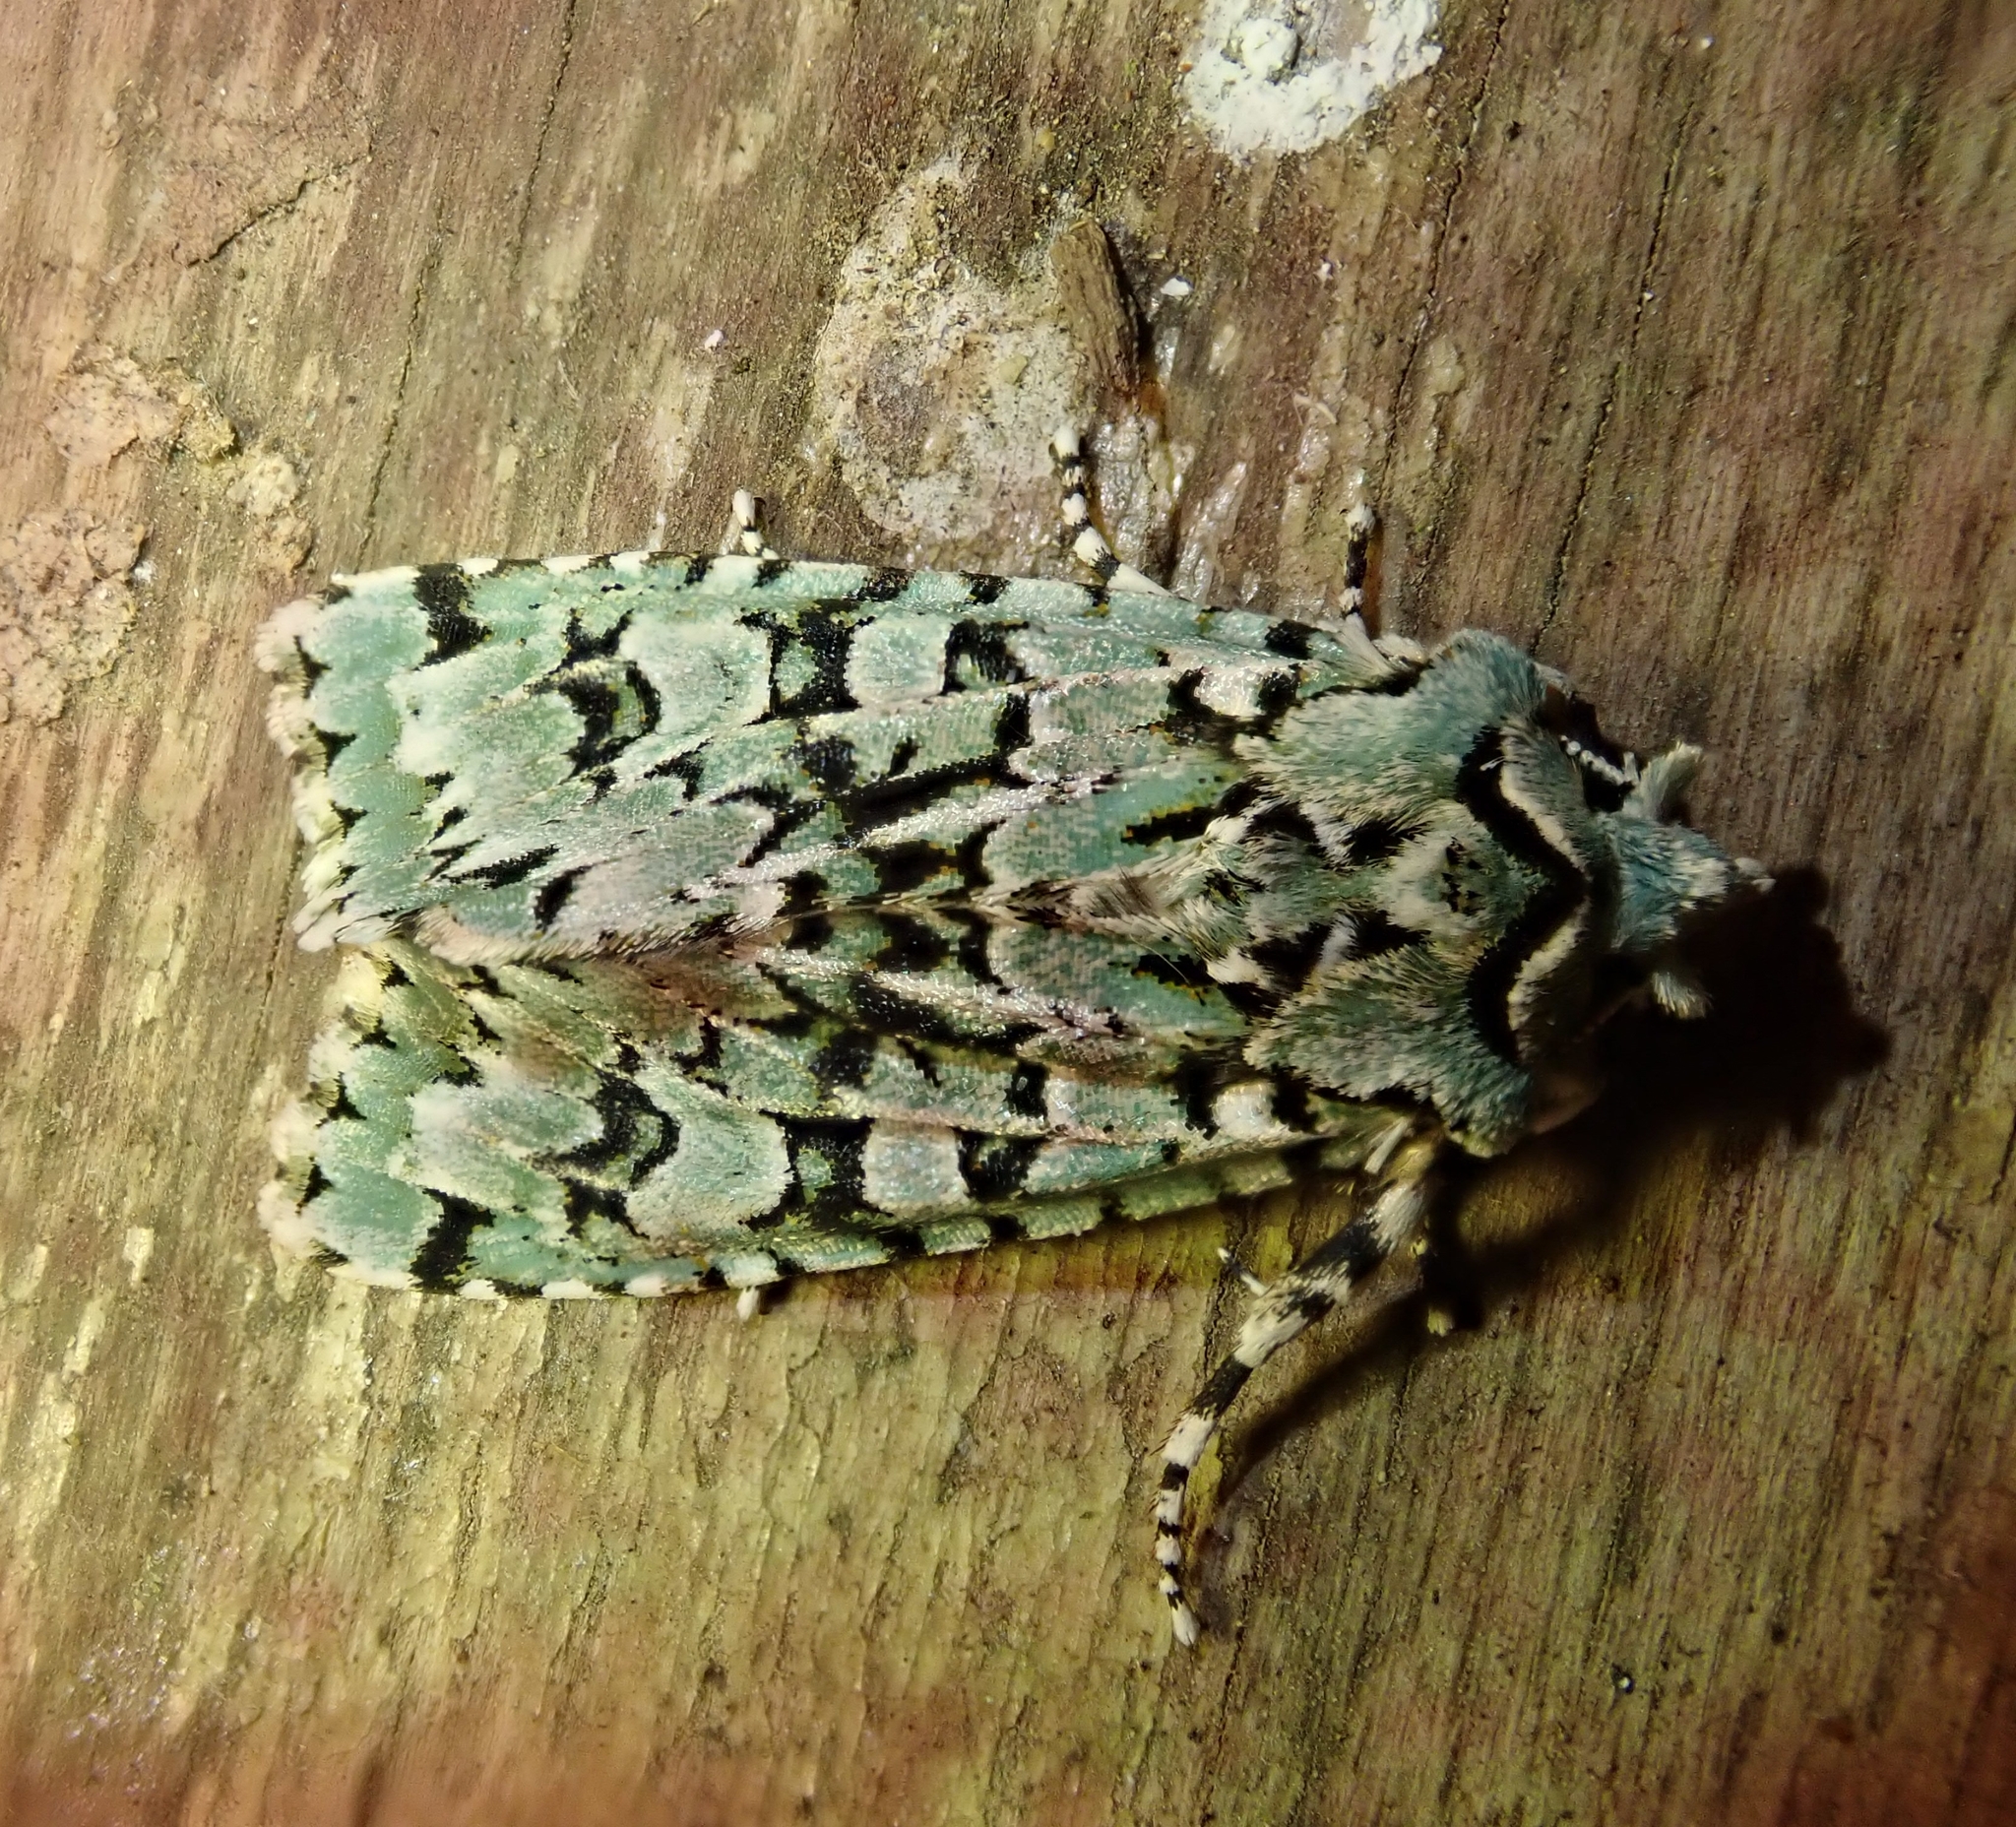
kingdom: Animalia
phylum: Arthropoda
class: Insecta
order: Lepidoptera
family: Noctuidae
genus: Griposia
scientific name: Griposia aprilina
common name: Merveille du jour
